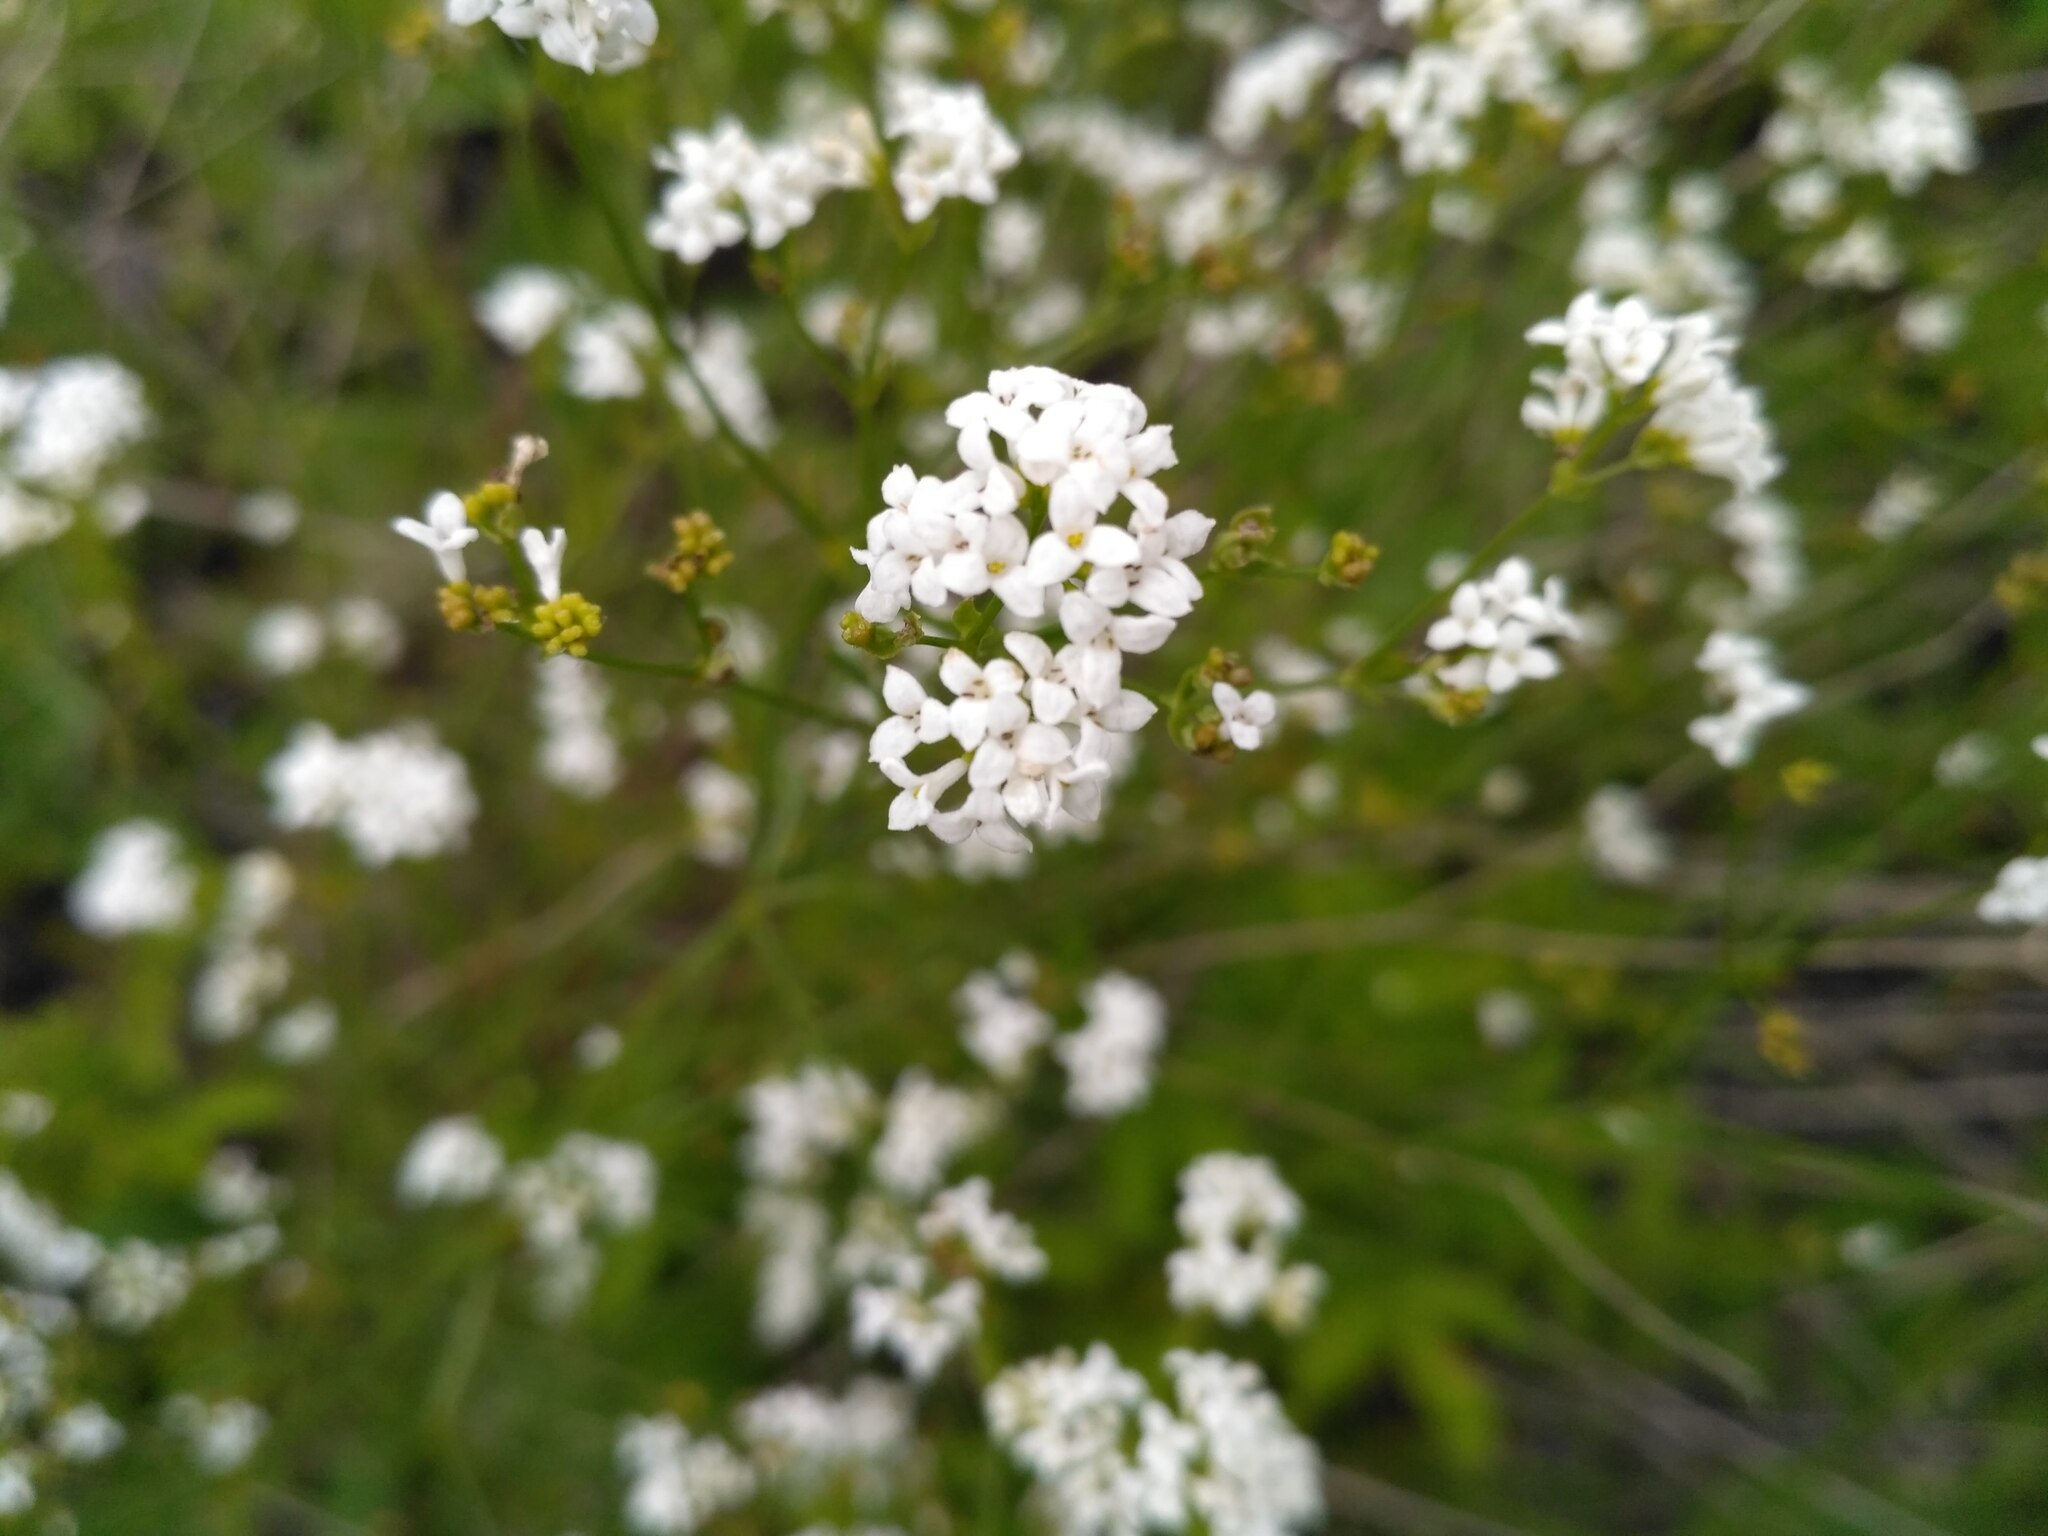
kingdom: Plantae
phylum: Tracheophyta
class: Magnoliopsida
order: Gentianales
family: Rubiaceae
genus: Asperula
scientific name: Asperula tinctoria
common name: Dyer's woodruff
